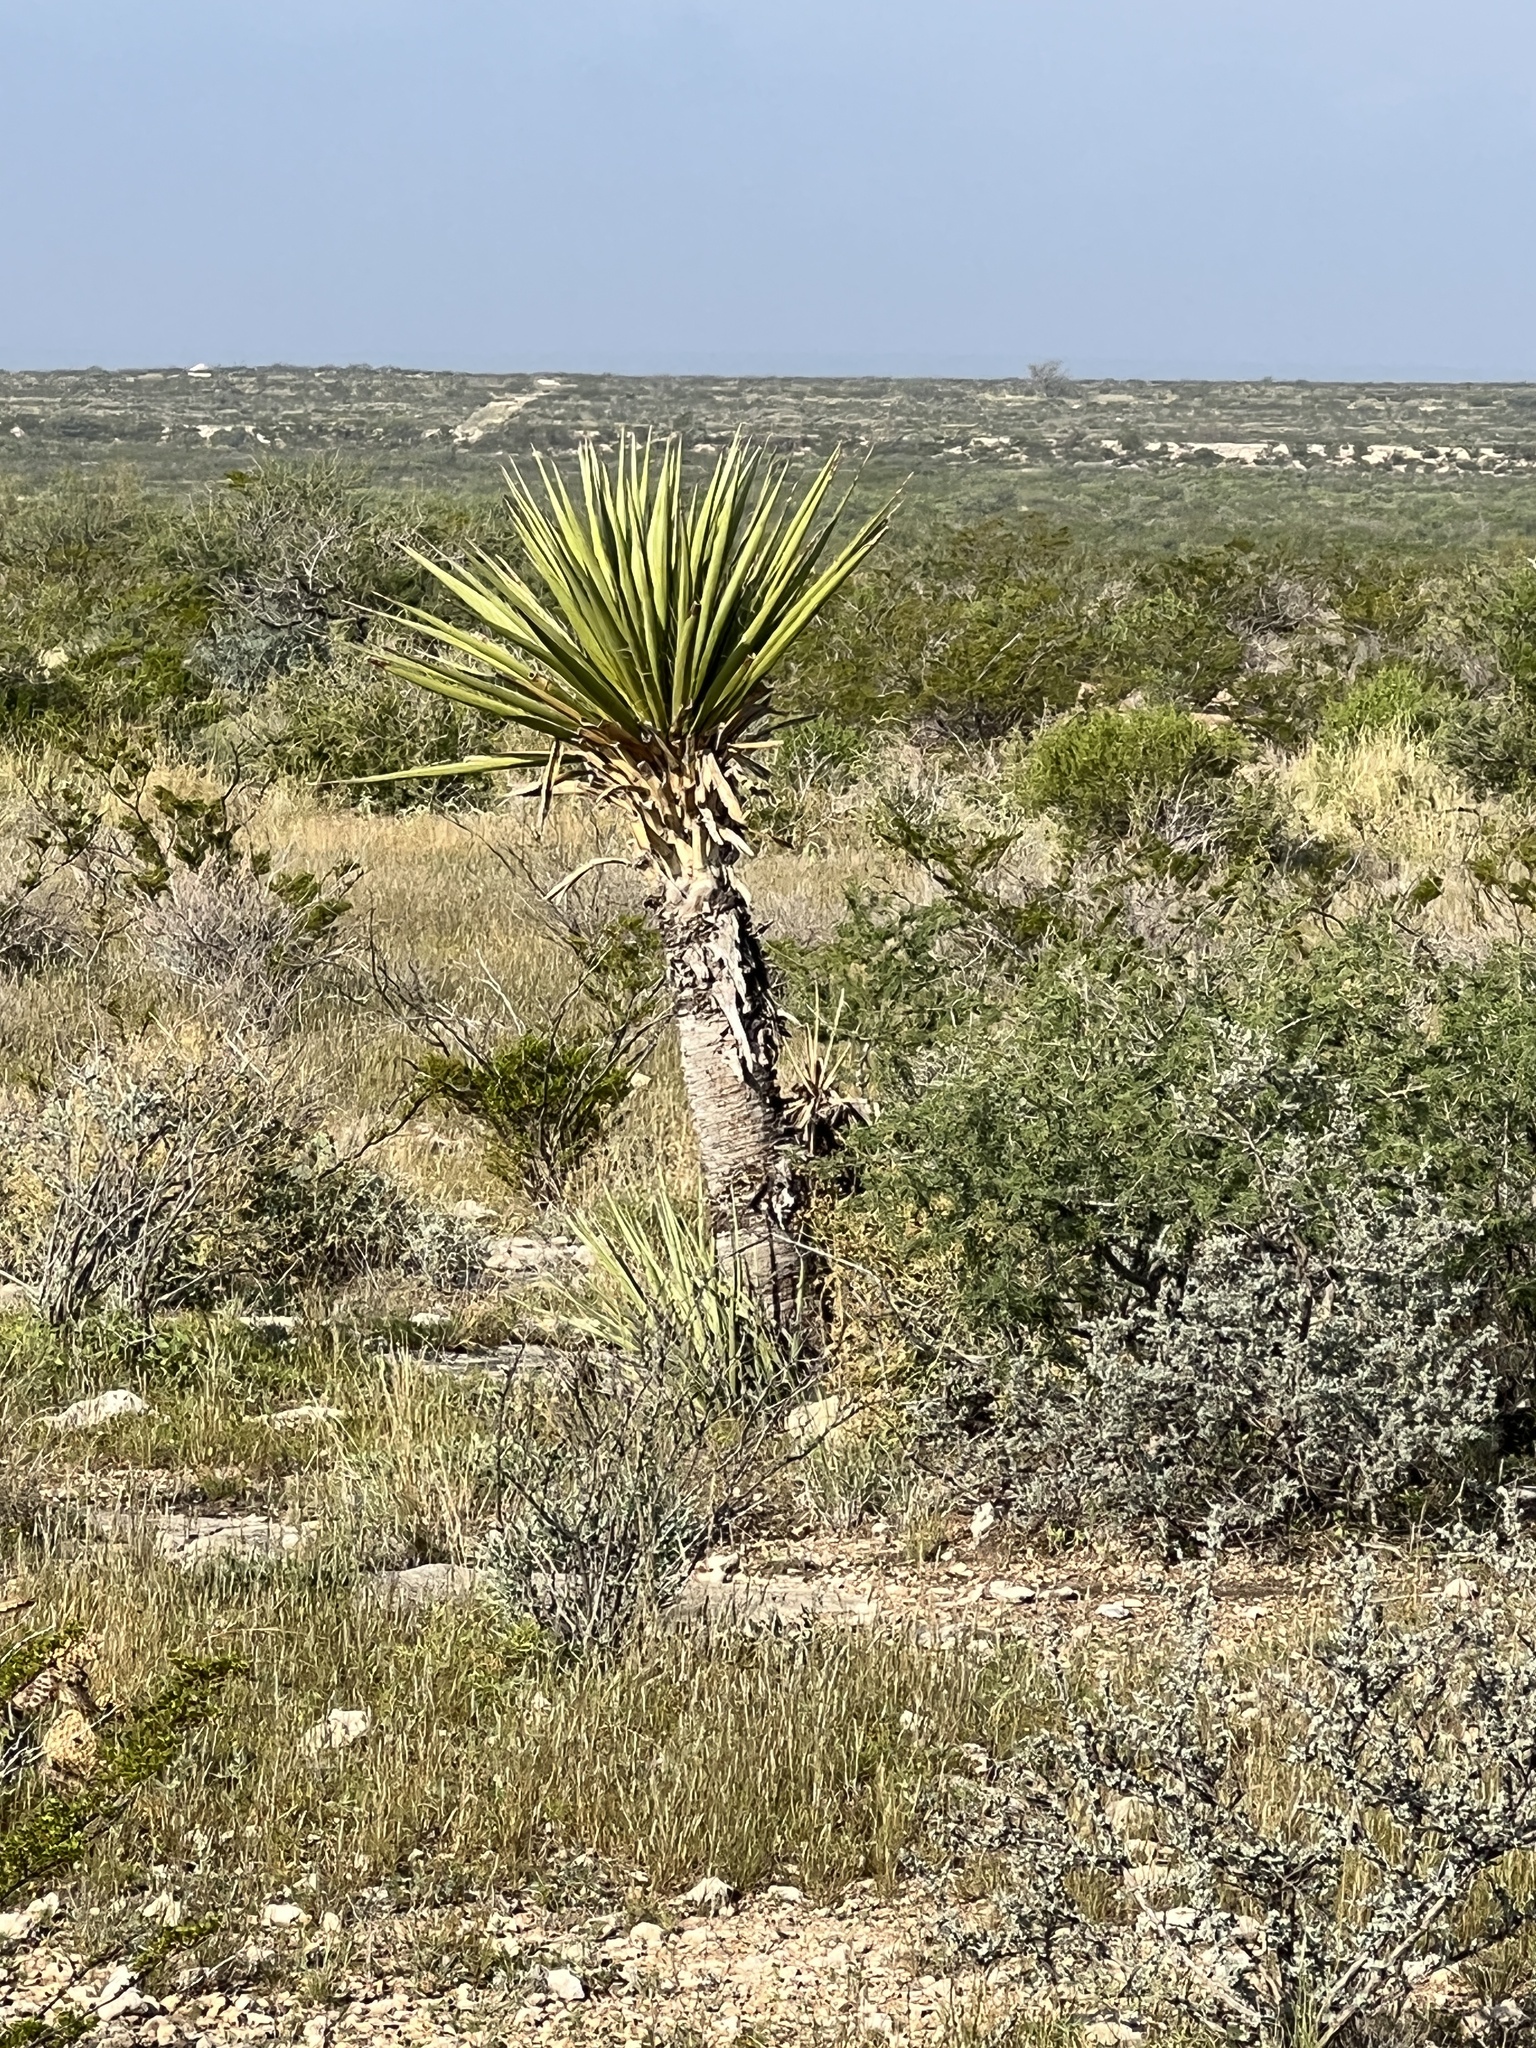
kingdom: Plantae
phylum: Tracheophyta
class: Liliopsida
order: Asparagales
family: Asparagaceae
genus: Yucca
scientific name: Yucca treculiana
